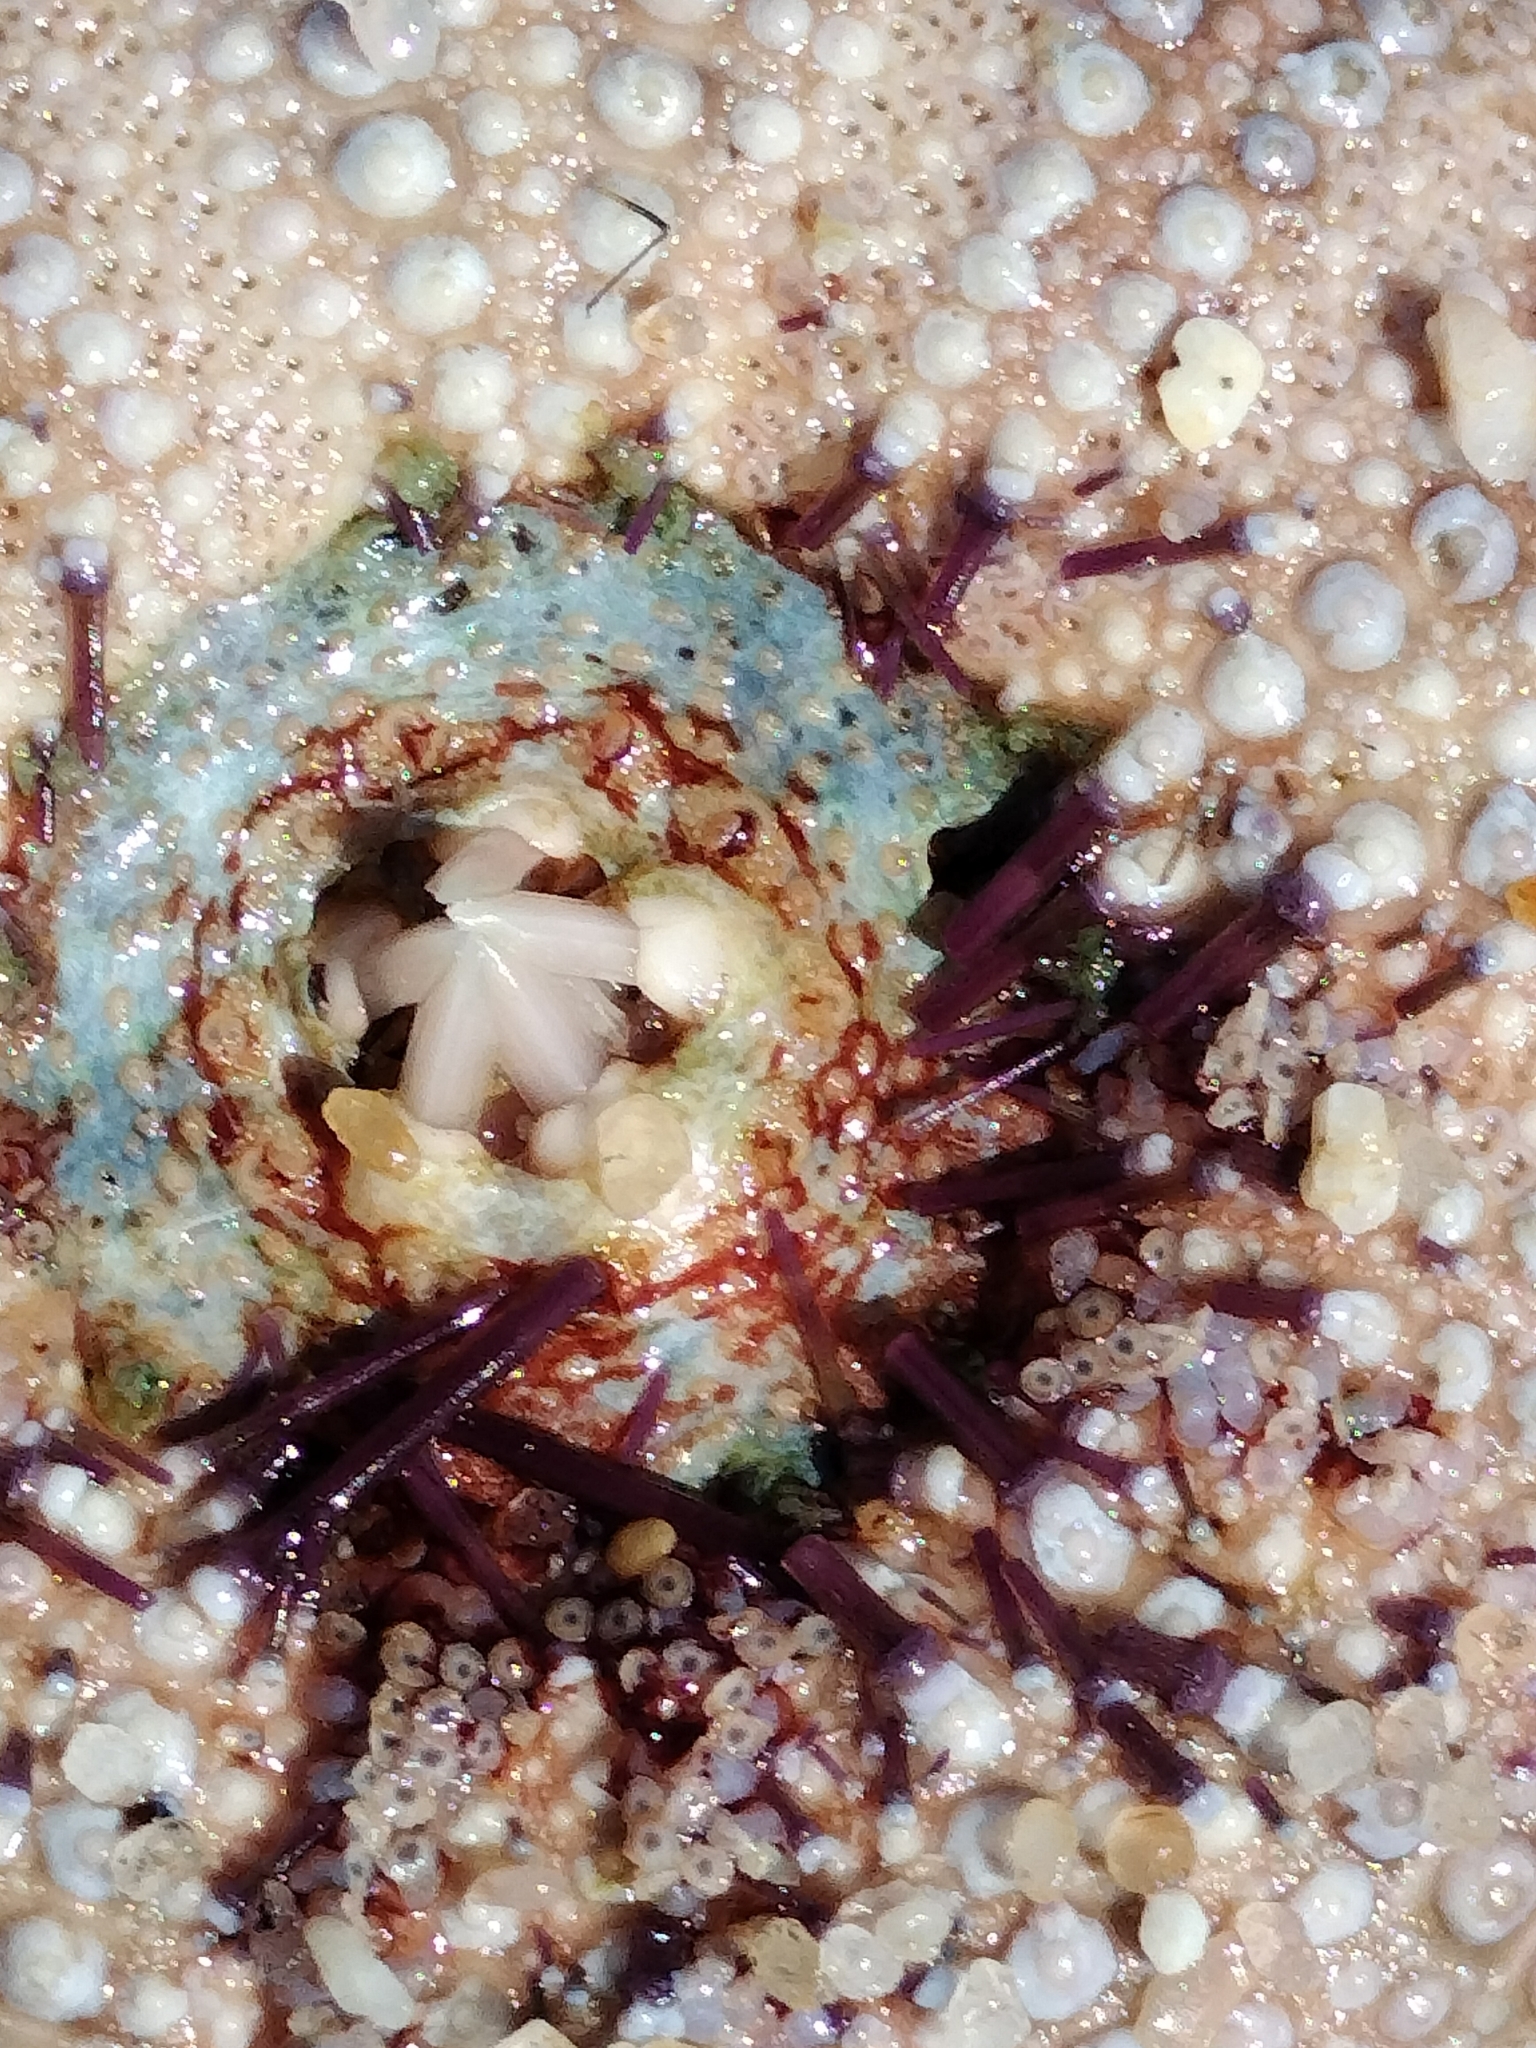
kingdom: Animalia
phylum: Echinodermata
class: Echinoidea
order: Camarodonta
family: Parechinidae
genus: Paracentrotus
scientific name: Paracentrotus lividus
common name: Purple sea urchin
